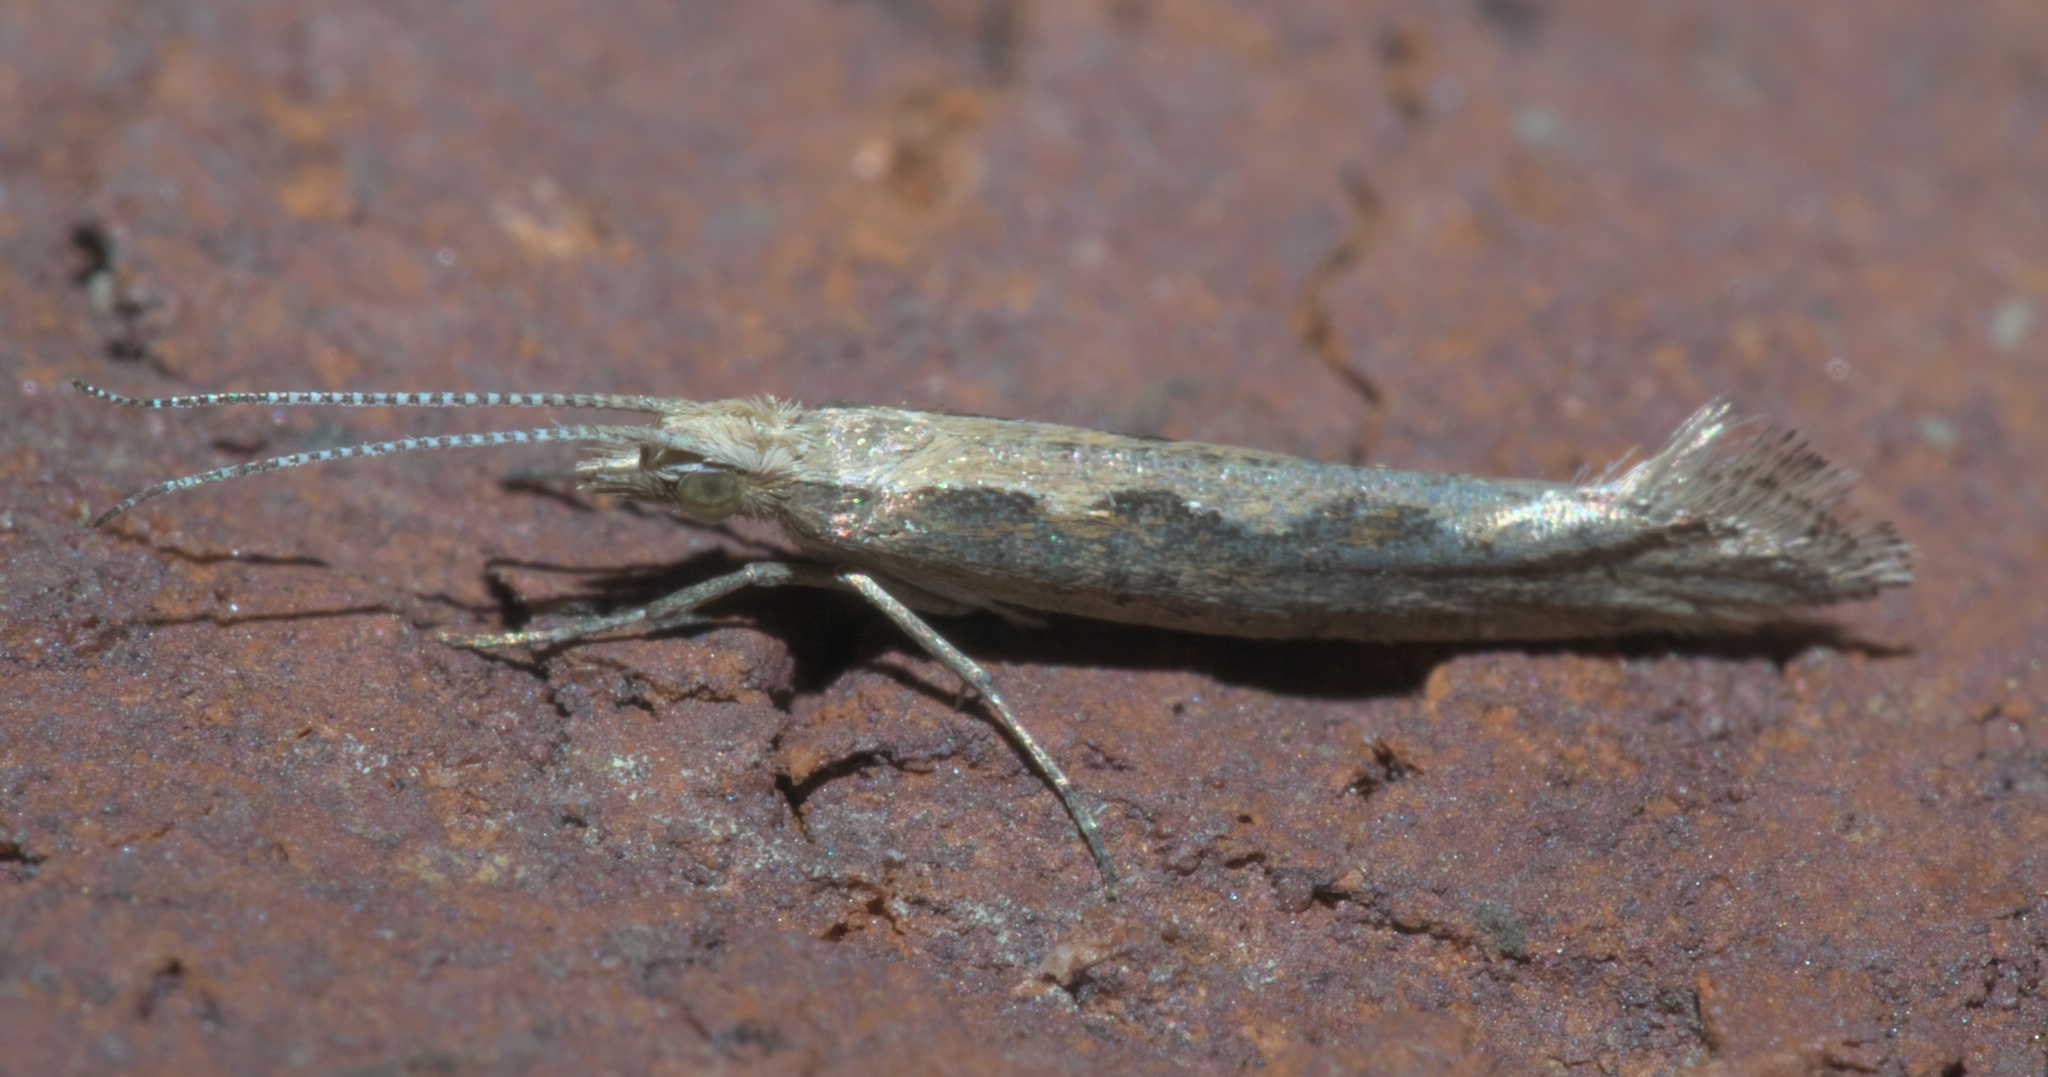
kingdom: Animalia
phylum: Arthropoda
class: Insecta
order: Lepidoptera
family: Plutellidae
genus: Plutella
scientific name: Plutella xylostella
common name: Diamond-back moth
